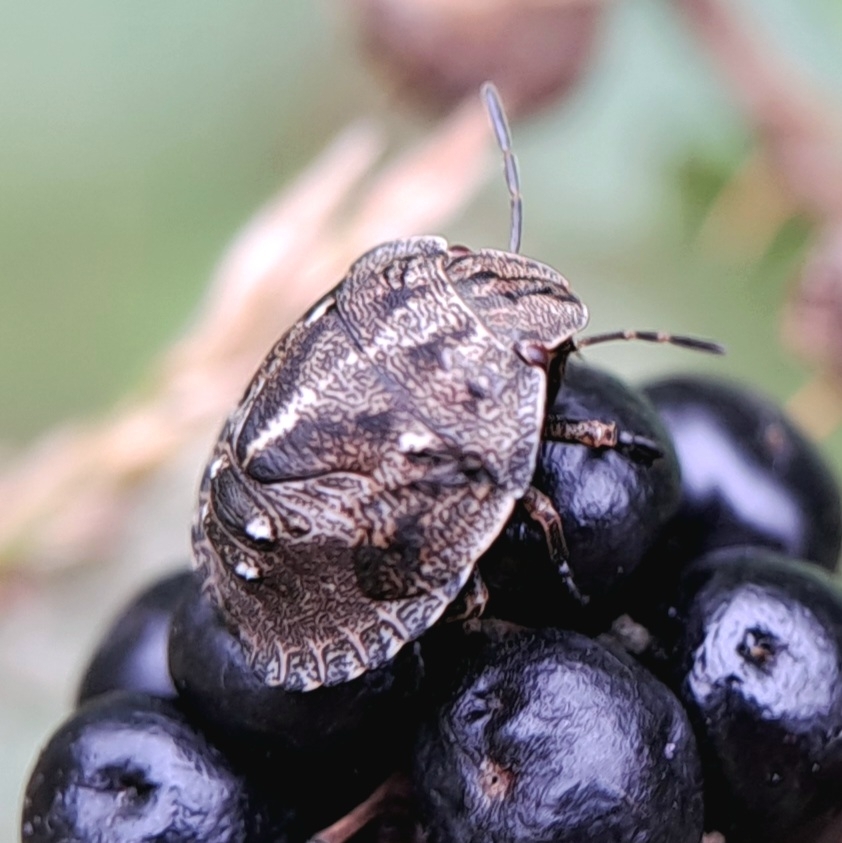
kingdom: Animalia
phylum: Arthropoda
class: Insecta
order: Hemiptera
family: Scutelleridae
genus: Eurygaster
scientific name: Eurygaster testudinaria
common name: Tortoise bug
